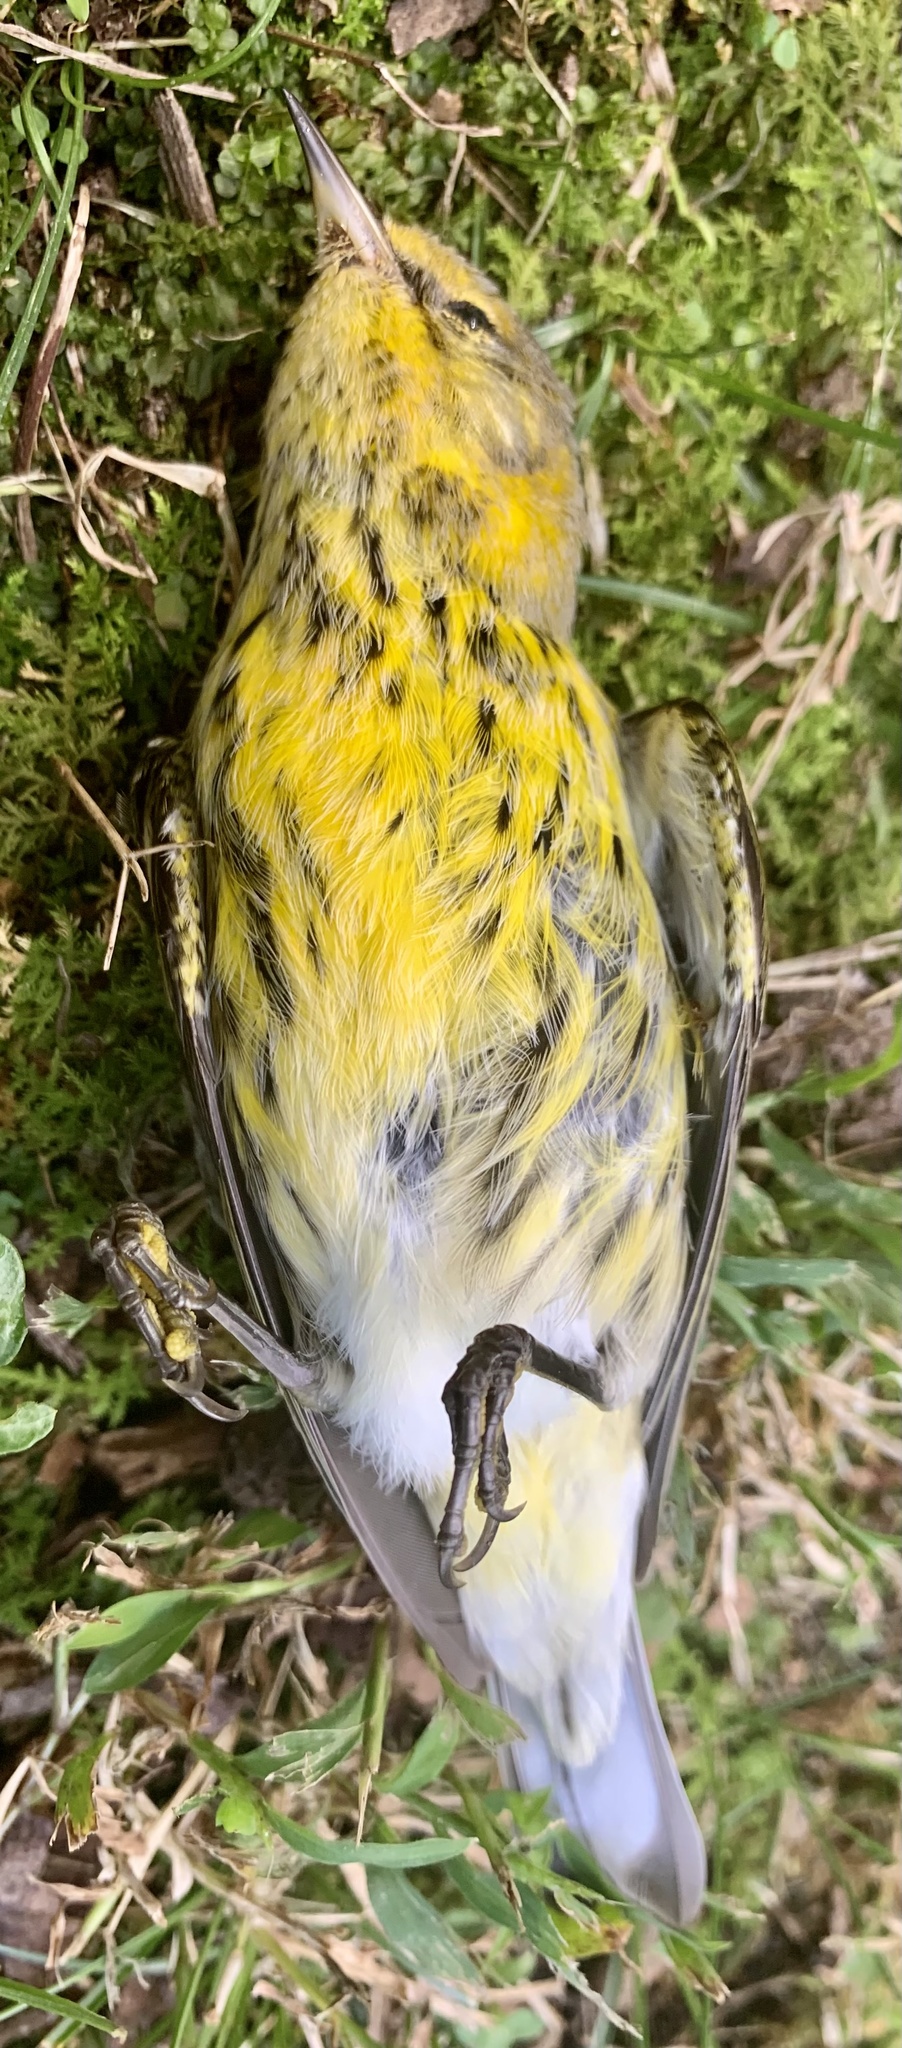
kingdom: Animalia
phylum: Chordata
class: Aves
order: Passeriformes
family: Parulidae
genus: Setophaga
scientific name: Setophaga tigrina
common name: Cape may warbler
